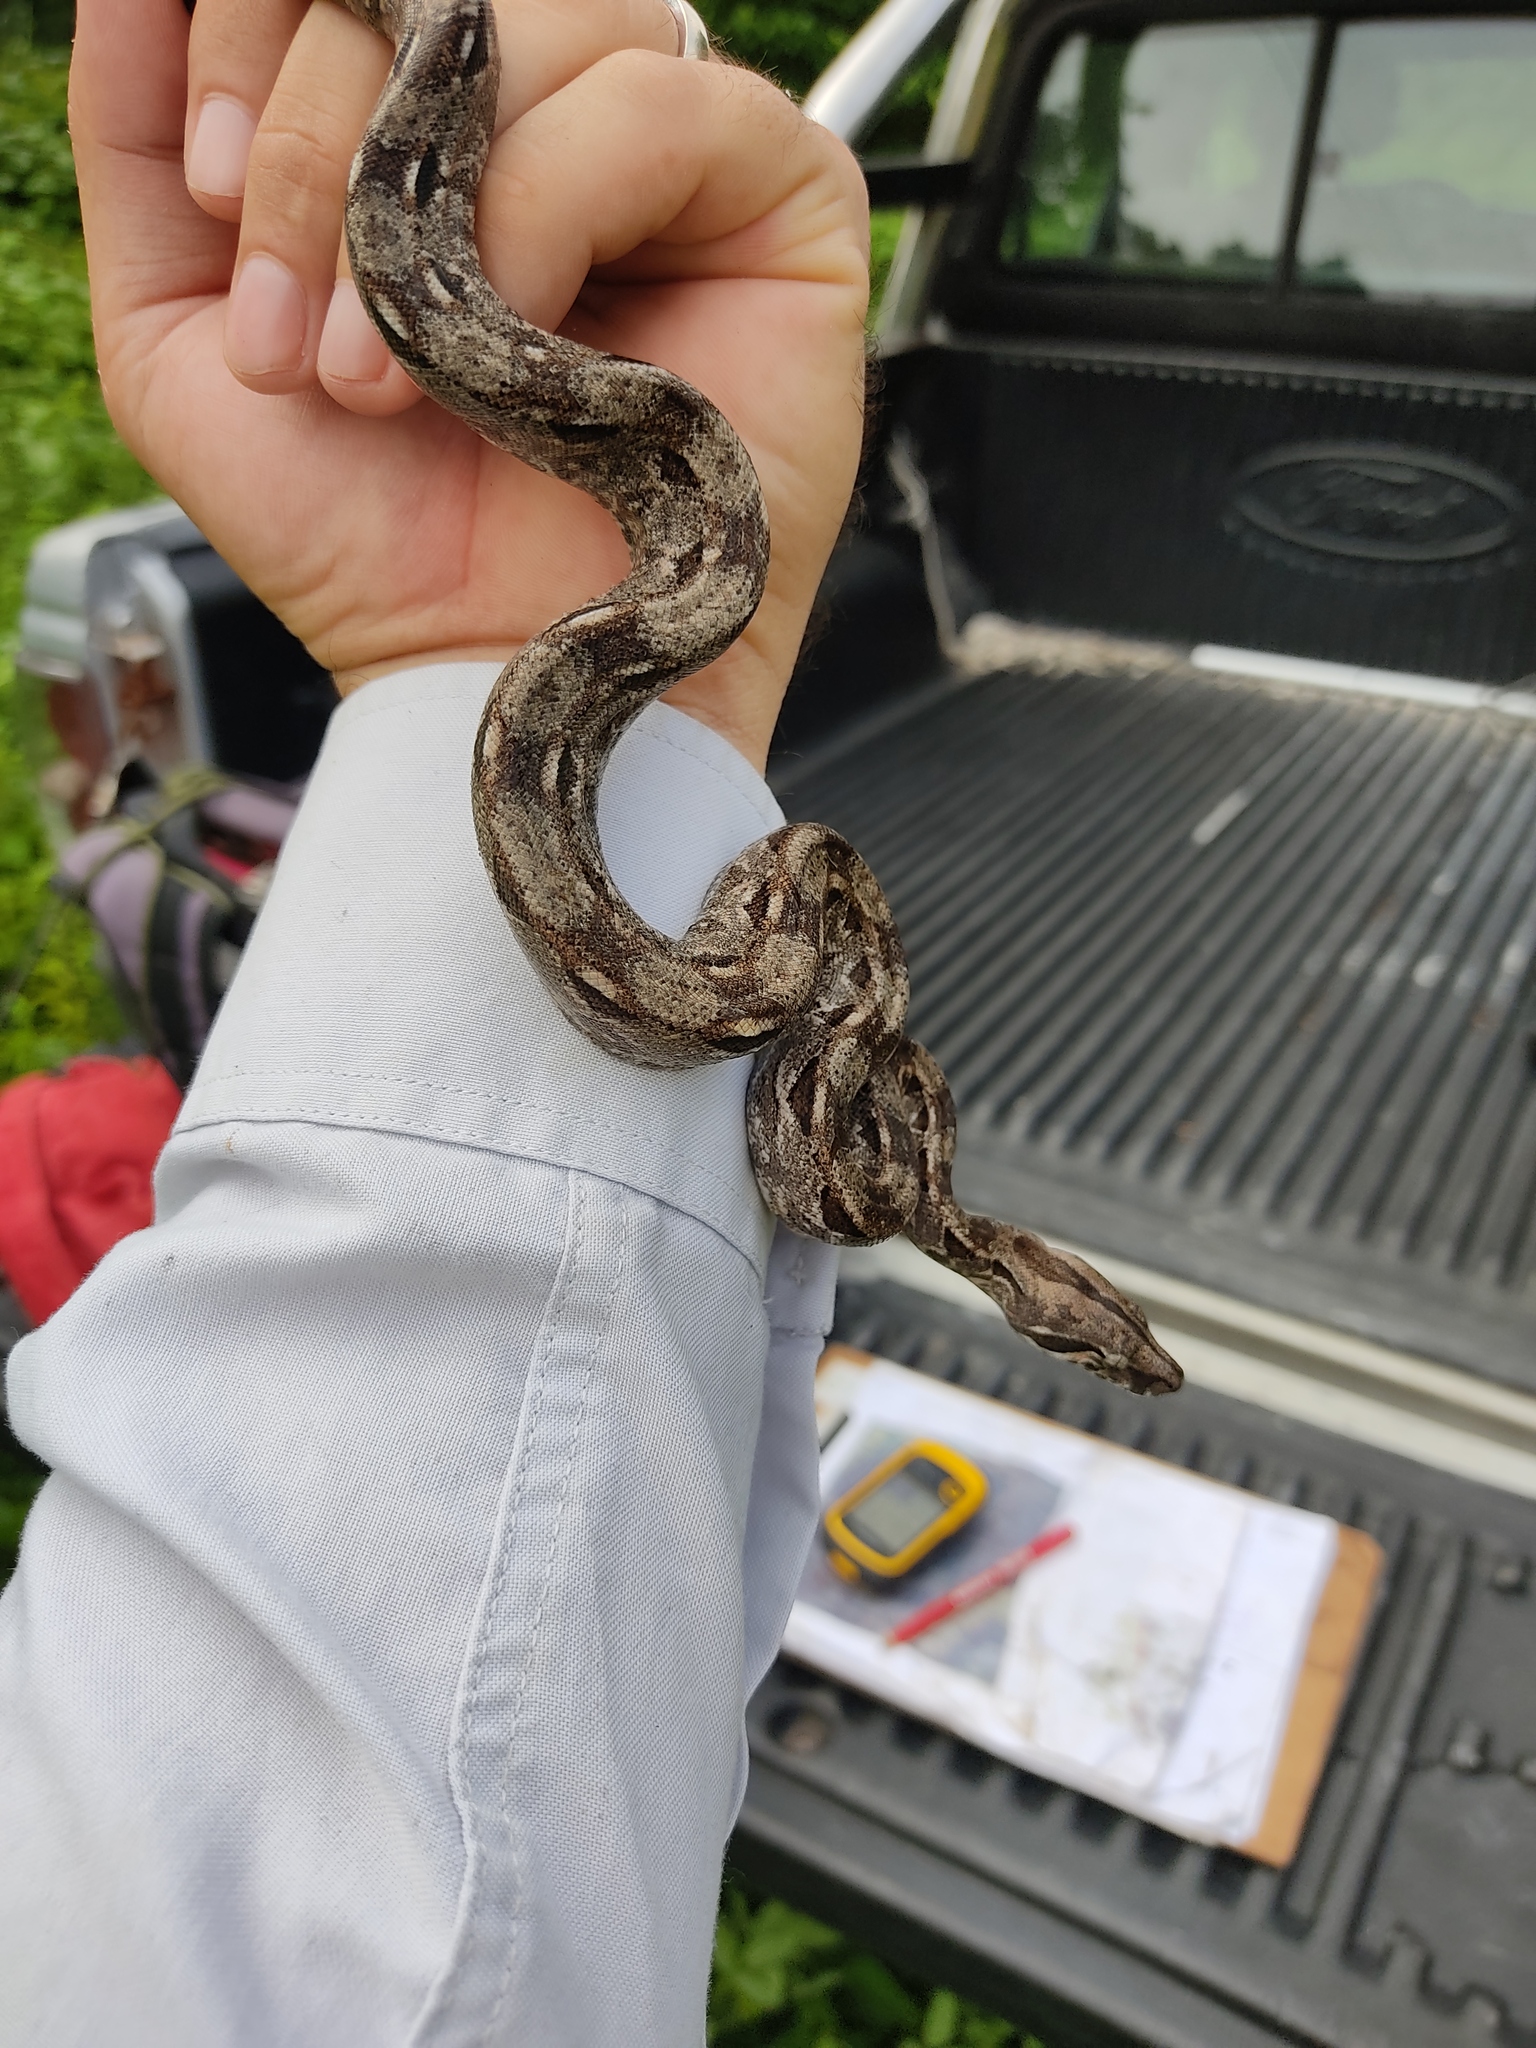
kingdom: Animalia
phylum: Chordata
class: Squamata
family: Boidae
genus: Boa
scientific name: Boa imperator
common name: Central american boa
